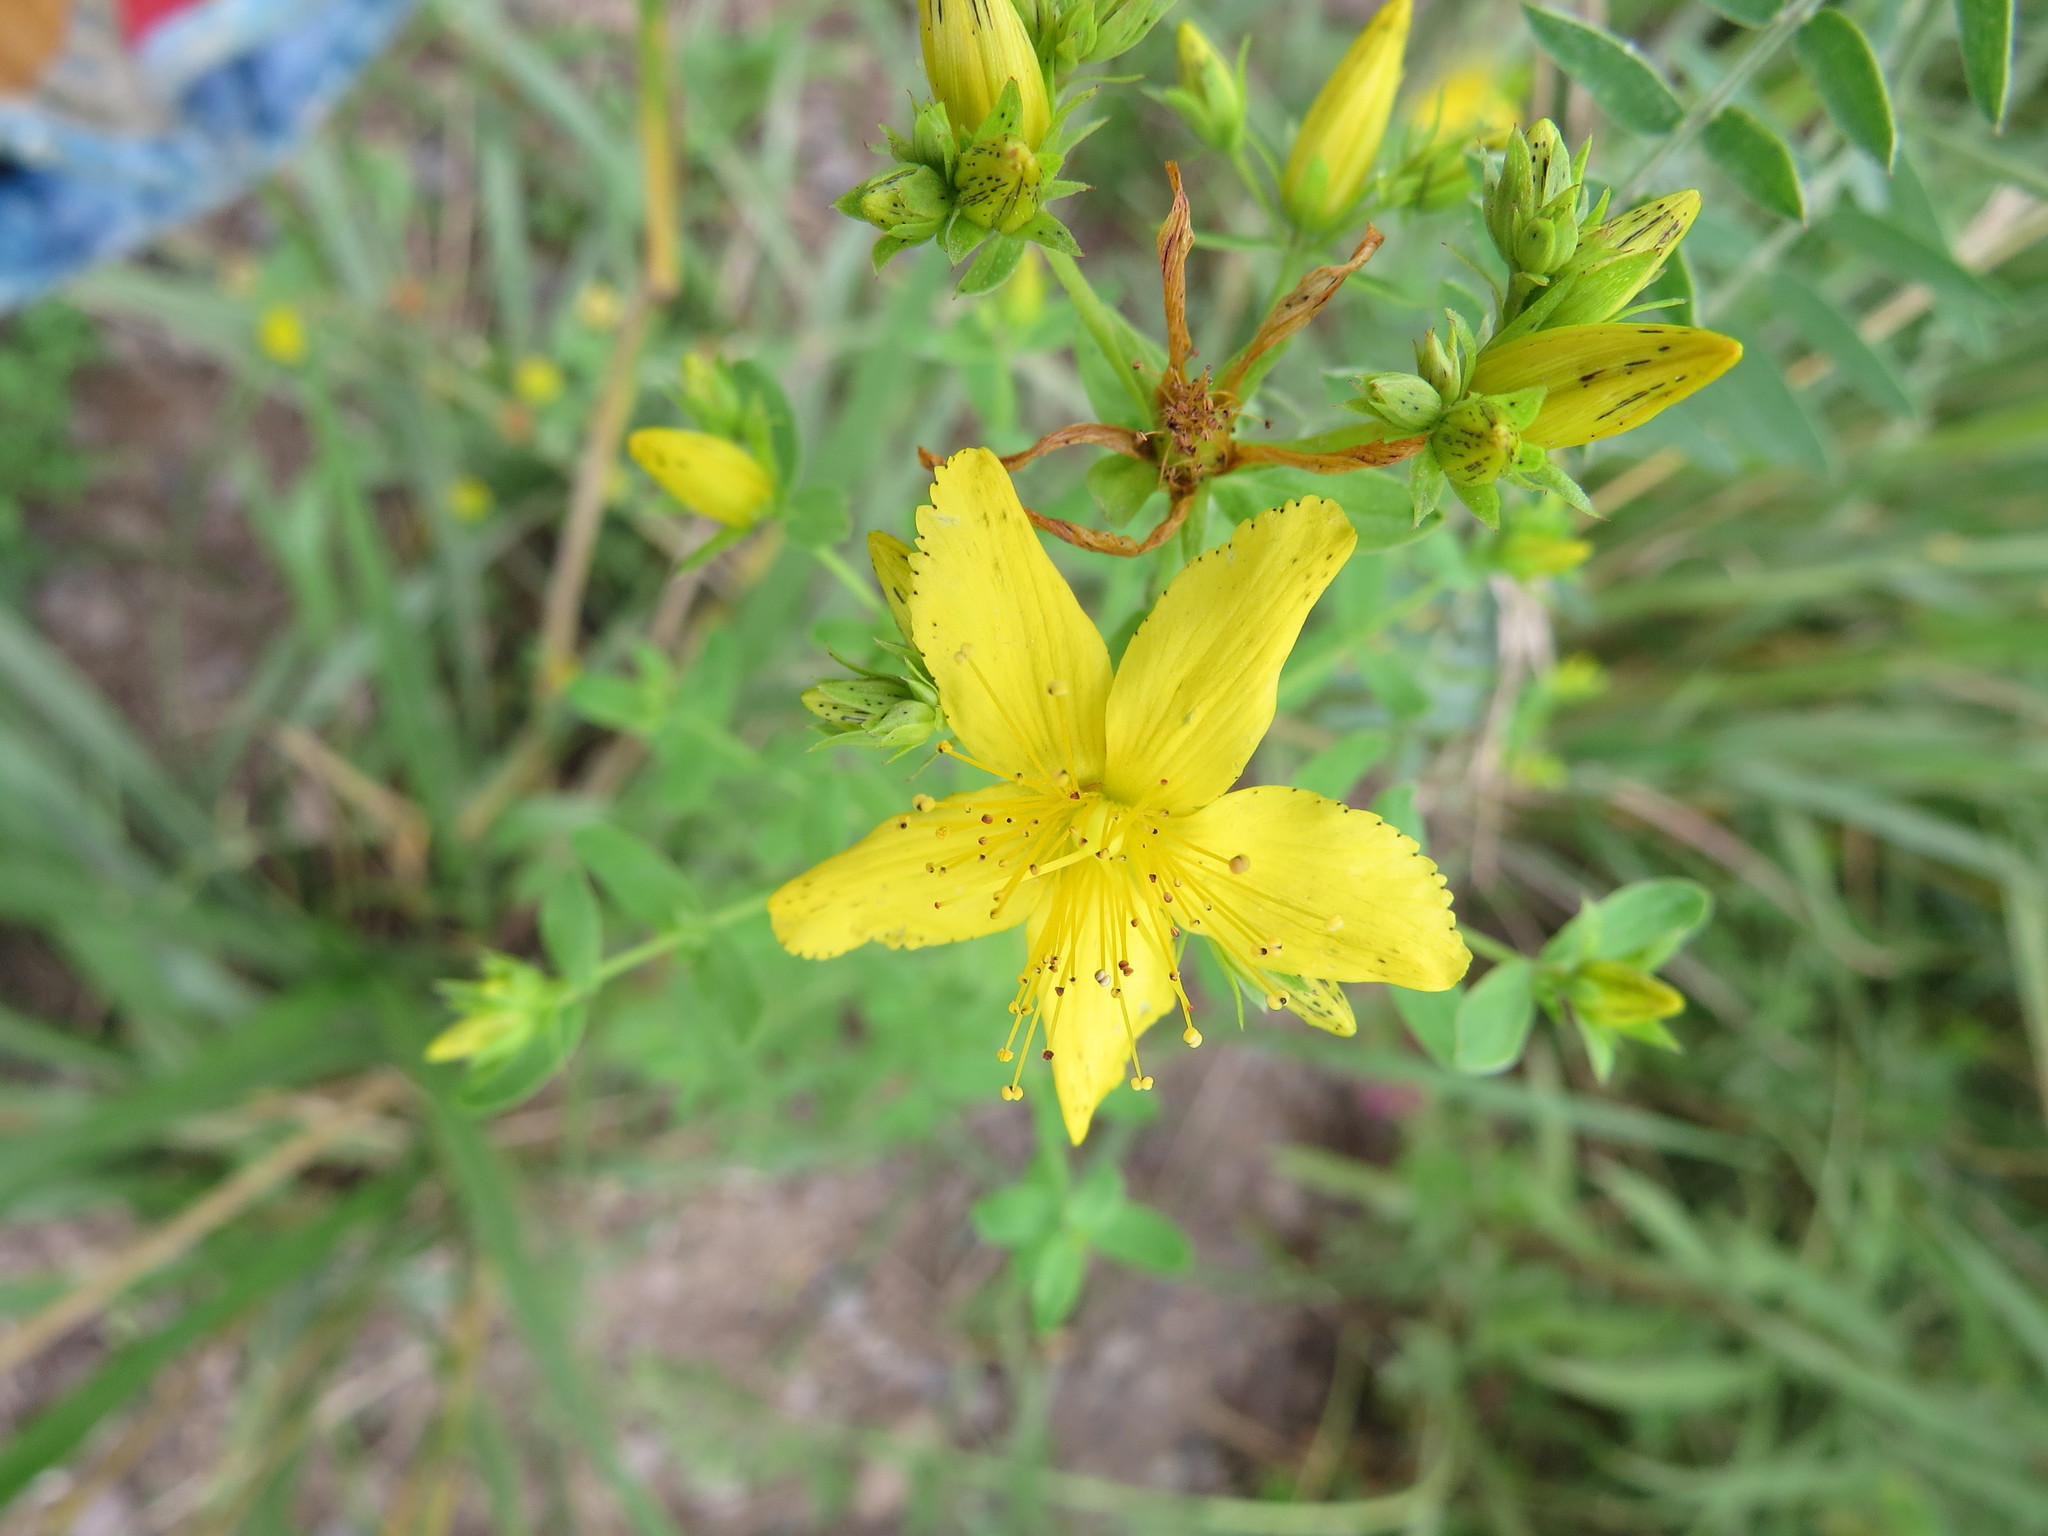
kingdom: Plantae
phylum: Tracheophyta
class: Magnoliopsida
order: Malpighiales
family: Hypericaceae
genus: Hypericum
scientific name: Hypericum perforatum
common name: Common st. johnswort
